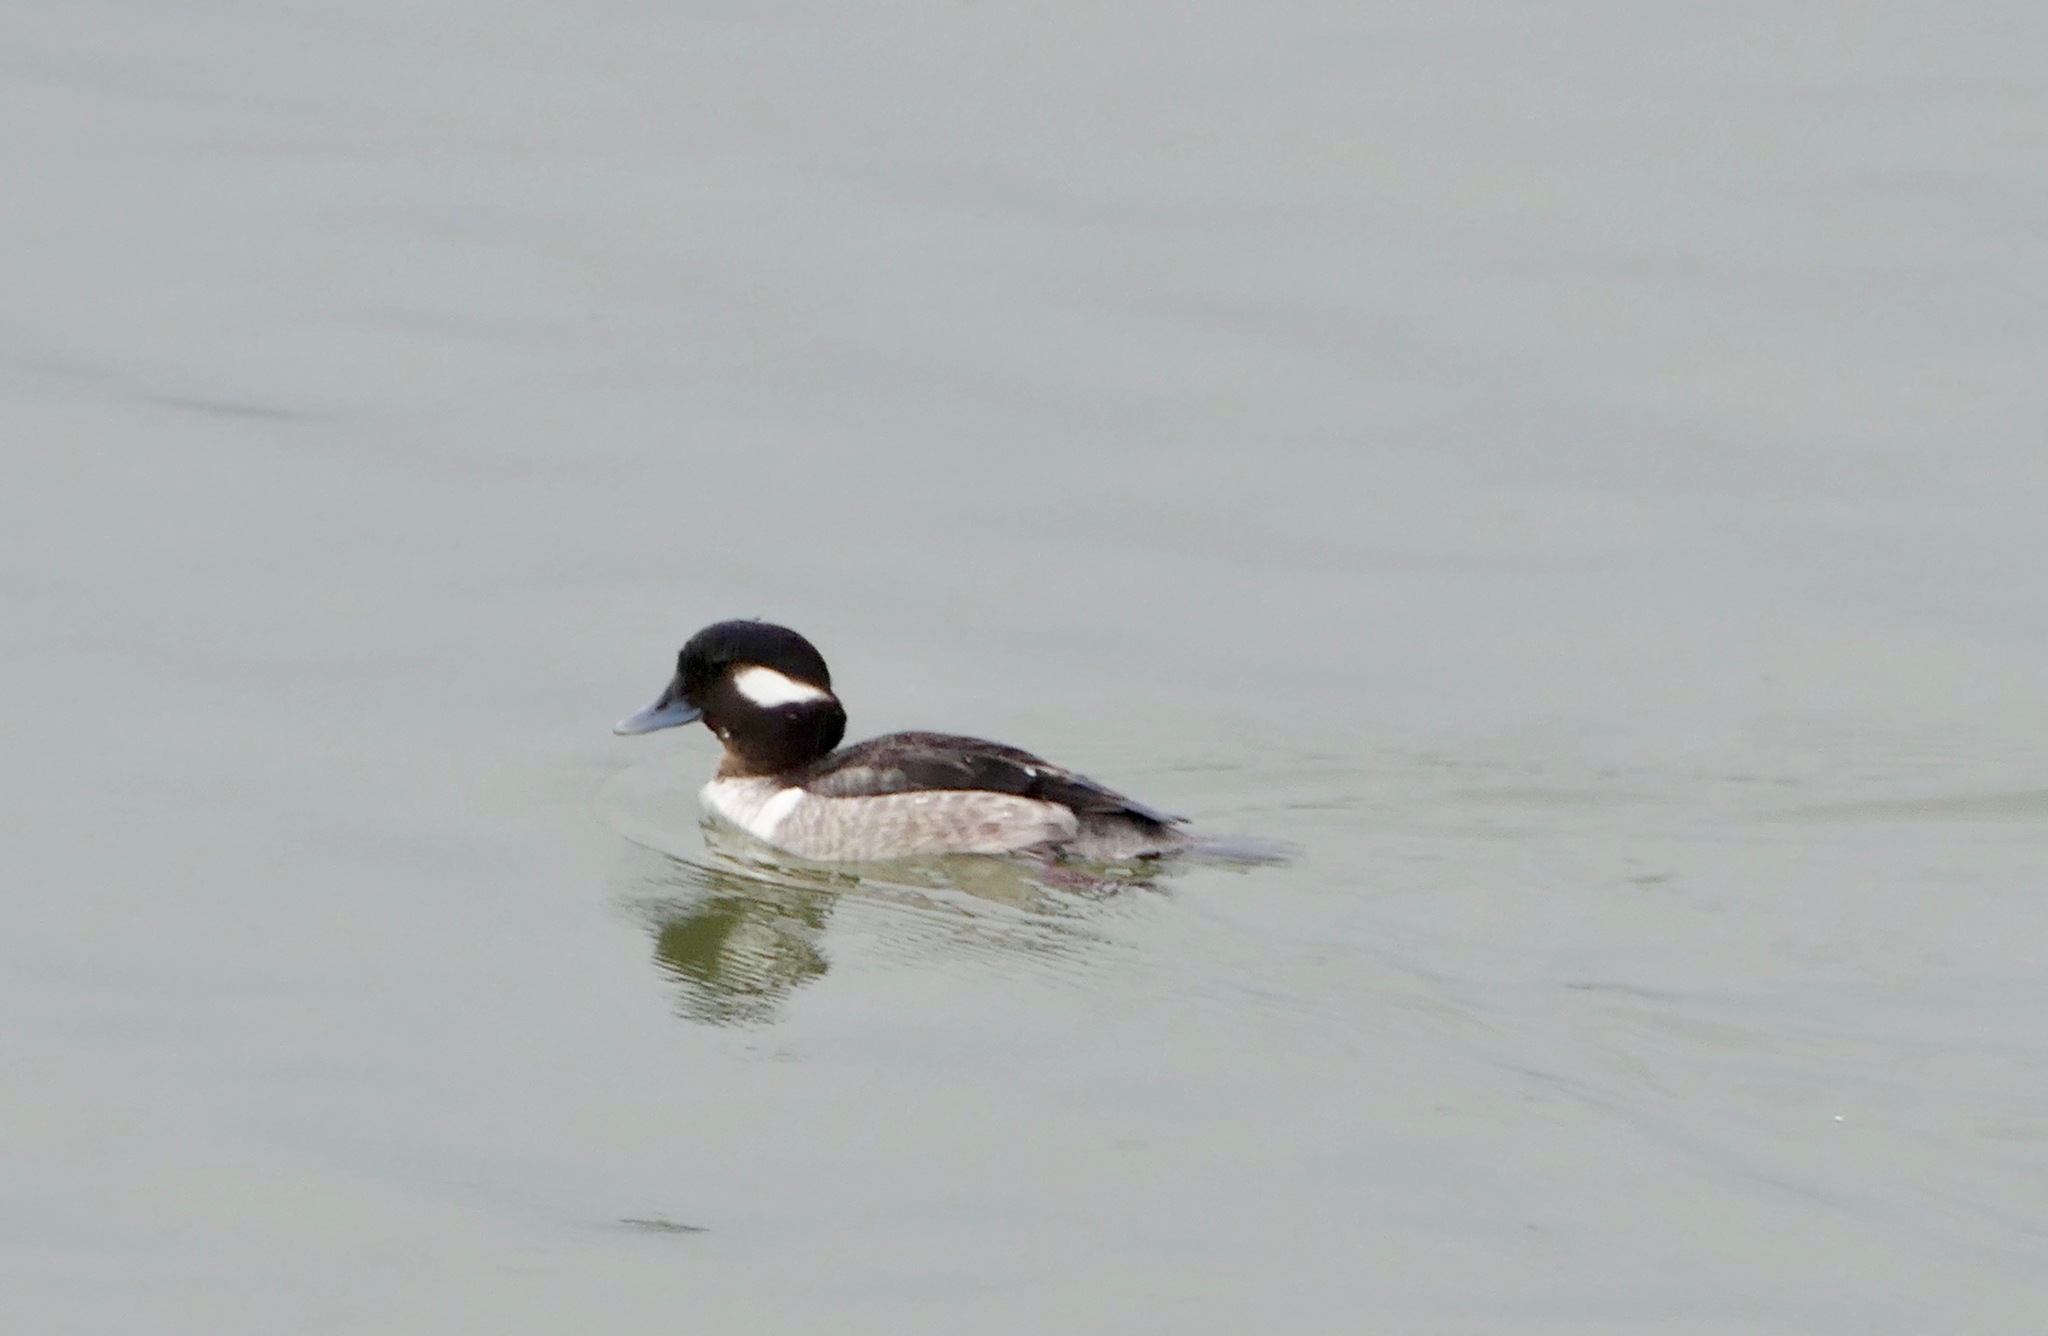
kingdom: Animalia
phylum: Chordata
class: Aves
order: Anseriformes
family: Anatidae
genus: Bucephala
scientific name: Bucephala albeola
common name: Bufflehead
